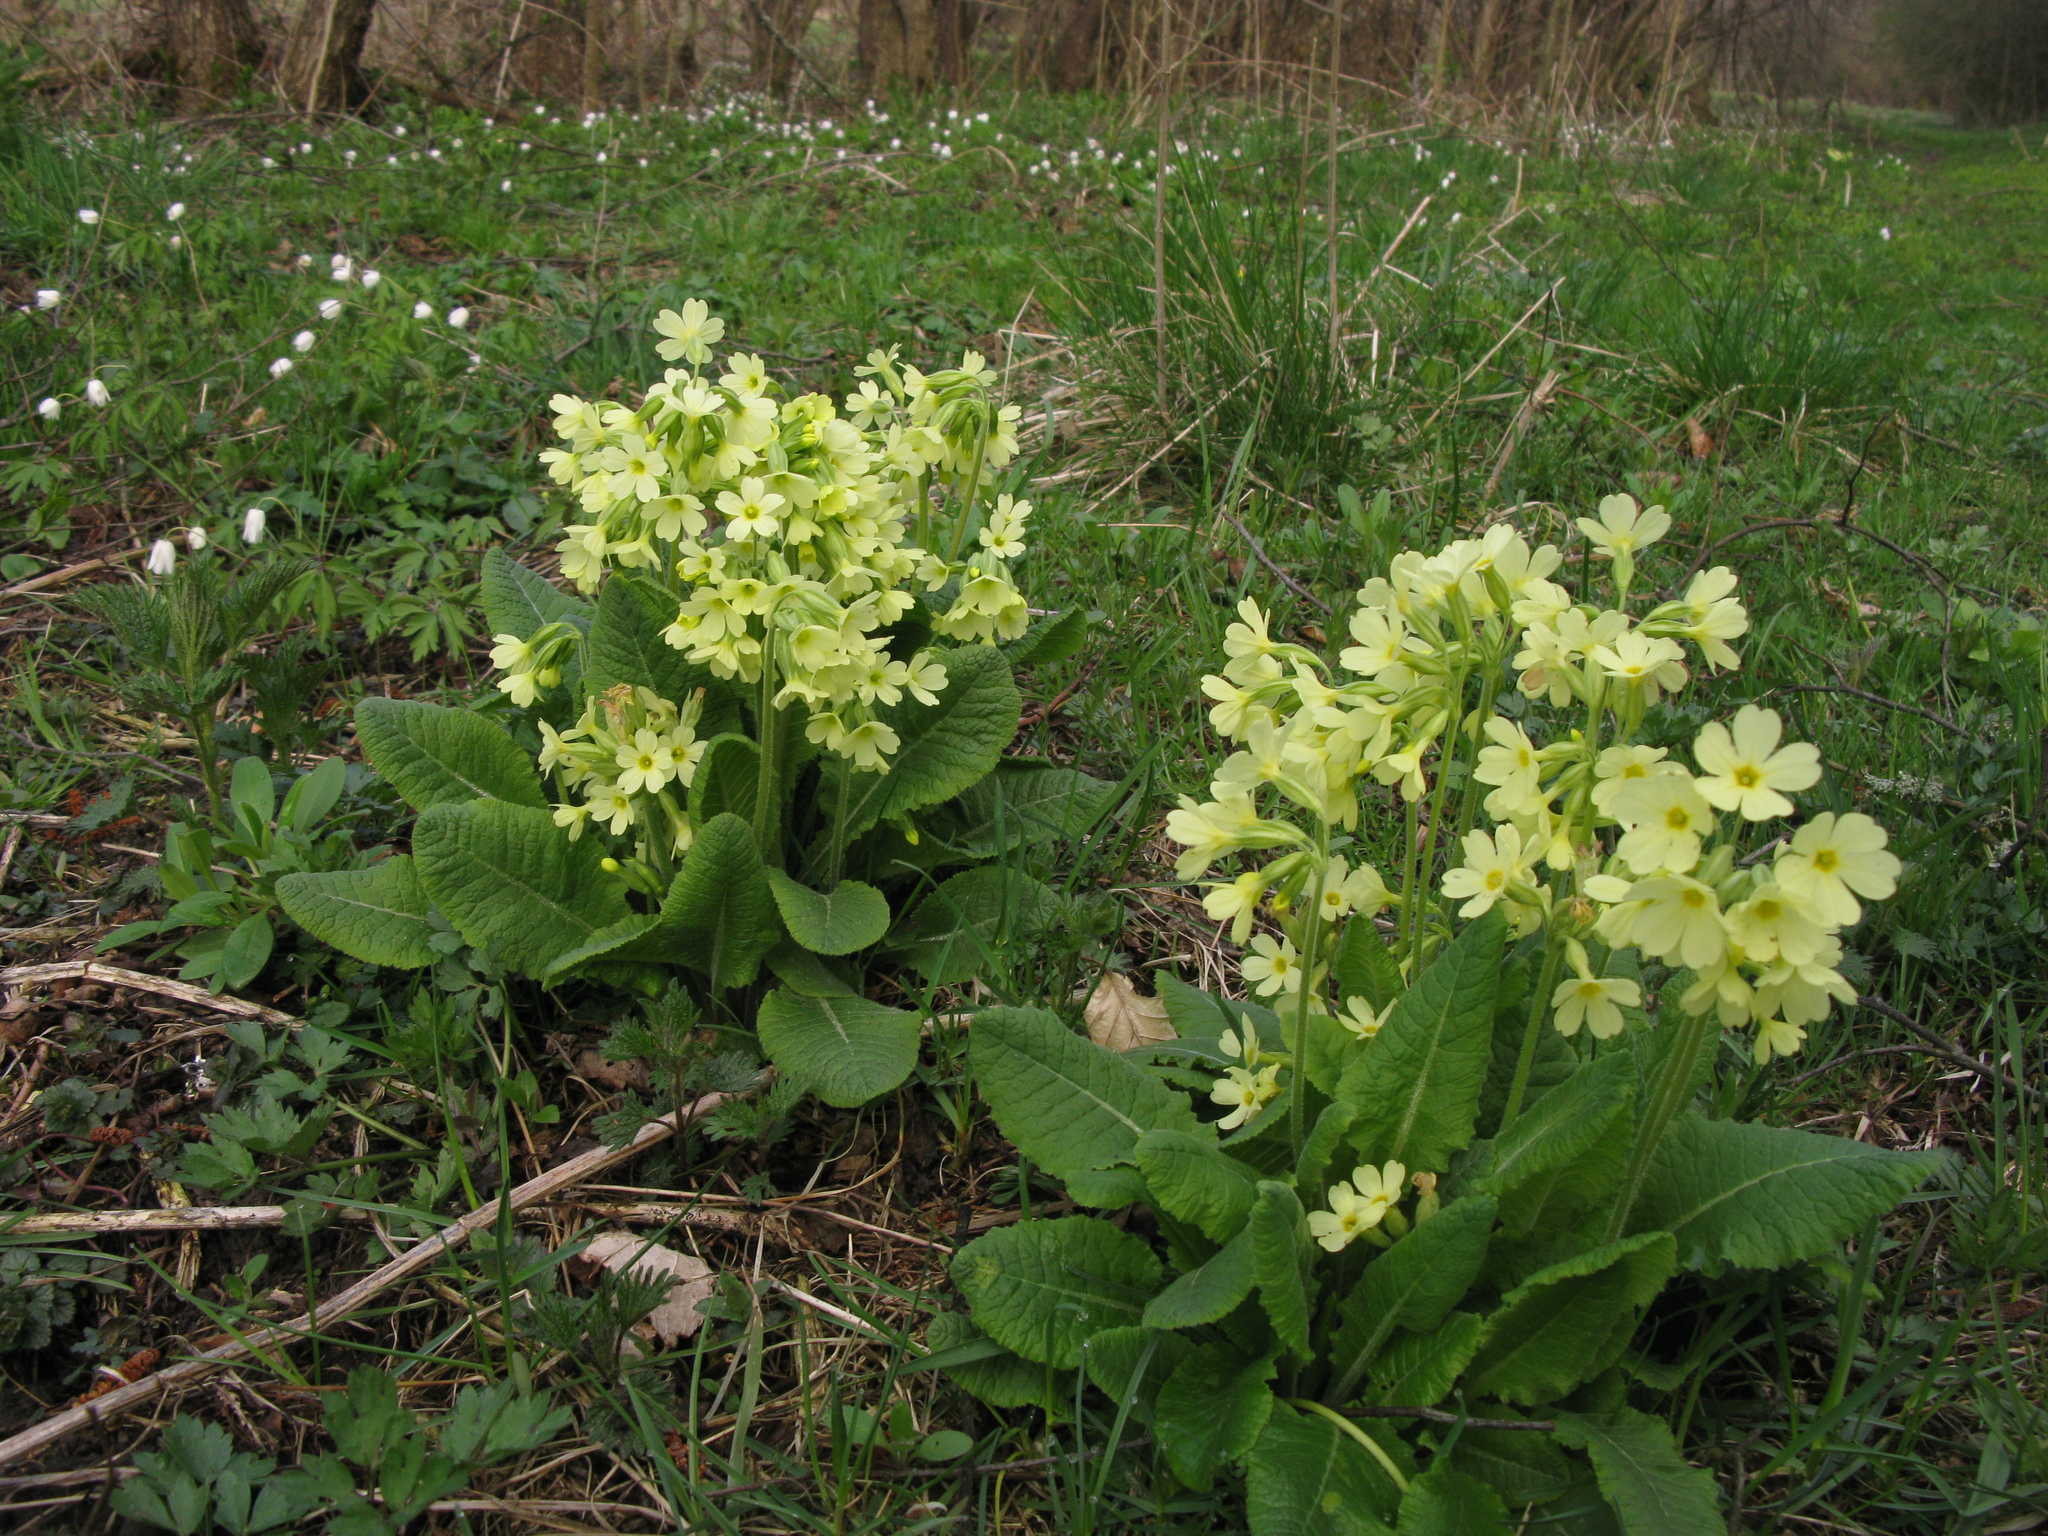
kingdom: Plantae
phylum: Tracheophyta
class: Magnoliopsida
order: Ericales
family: Primulaceae
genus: Primula
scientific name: Primula elatior
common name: Oxlip
